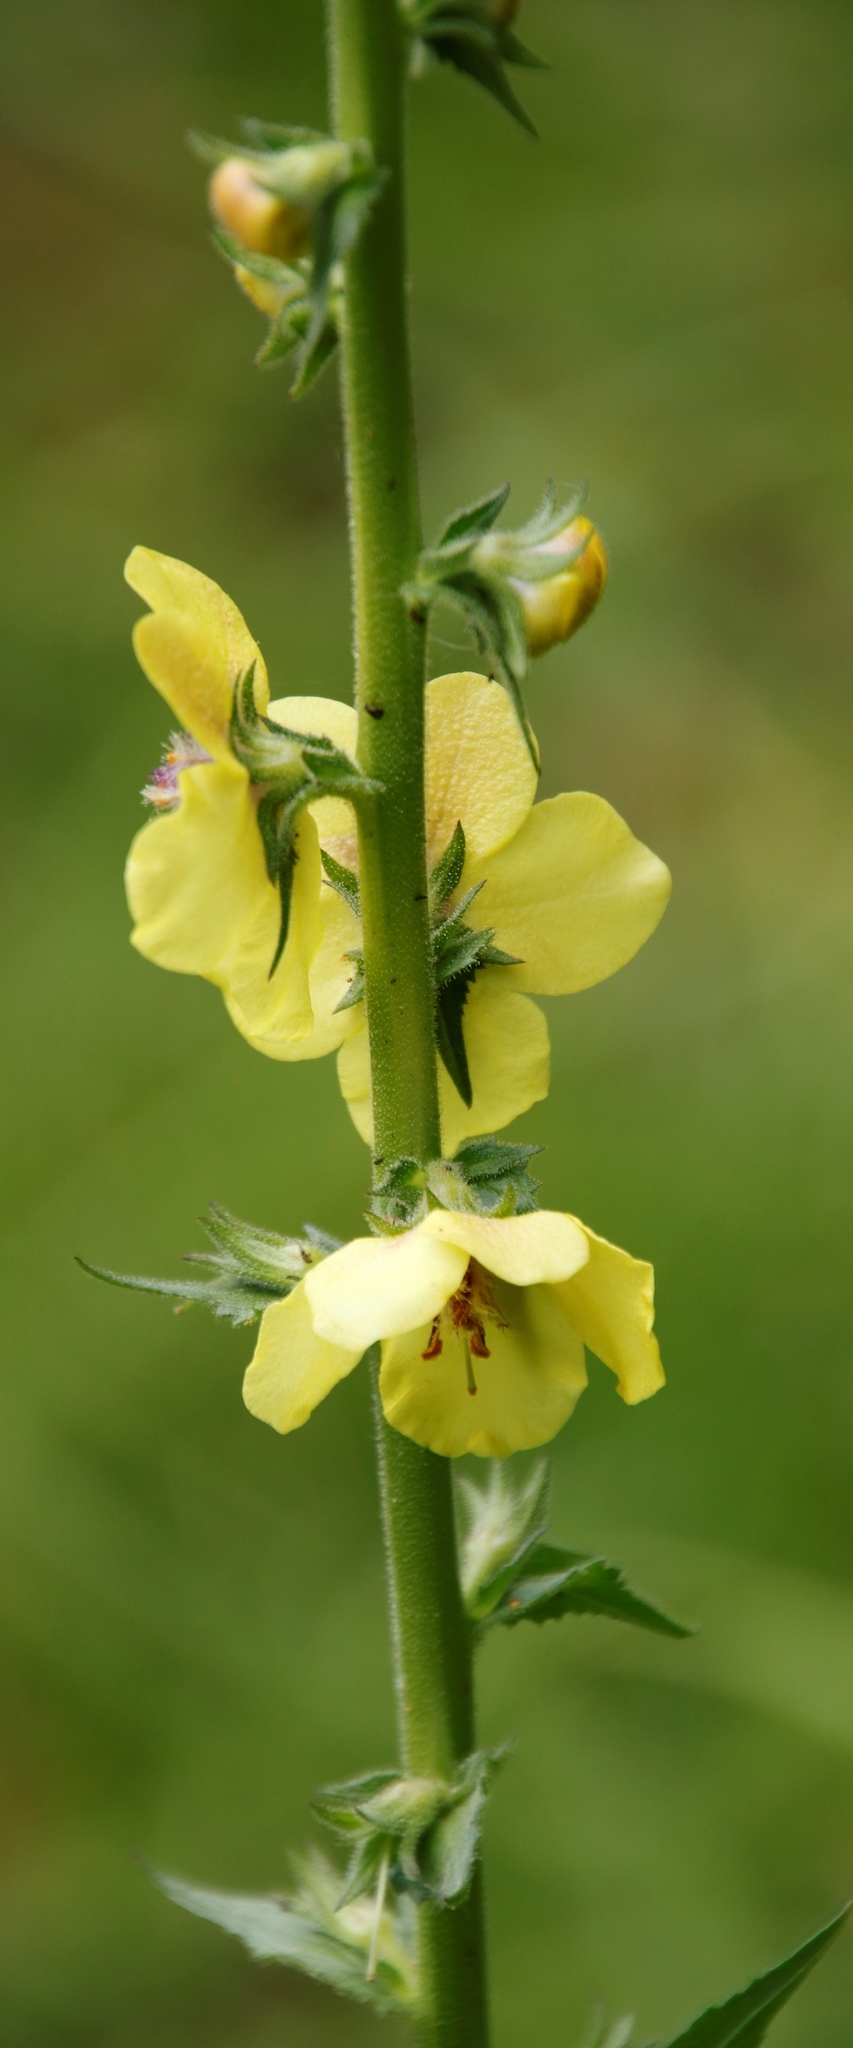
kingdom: Plantae
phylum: Tracheophyta
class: Magnoliopsida
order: Lamiales
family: Scrophulariaceae
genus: Verbascum
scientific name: Verbascum virgatum
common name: Twiggy mullein
